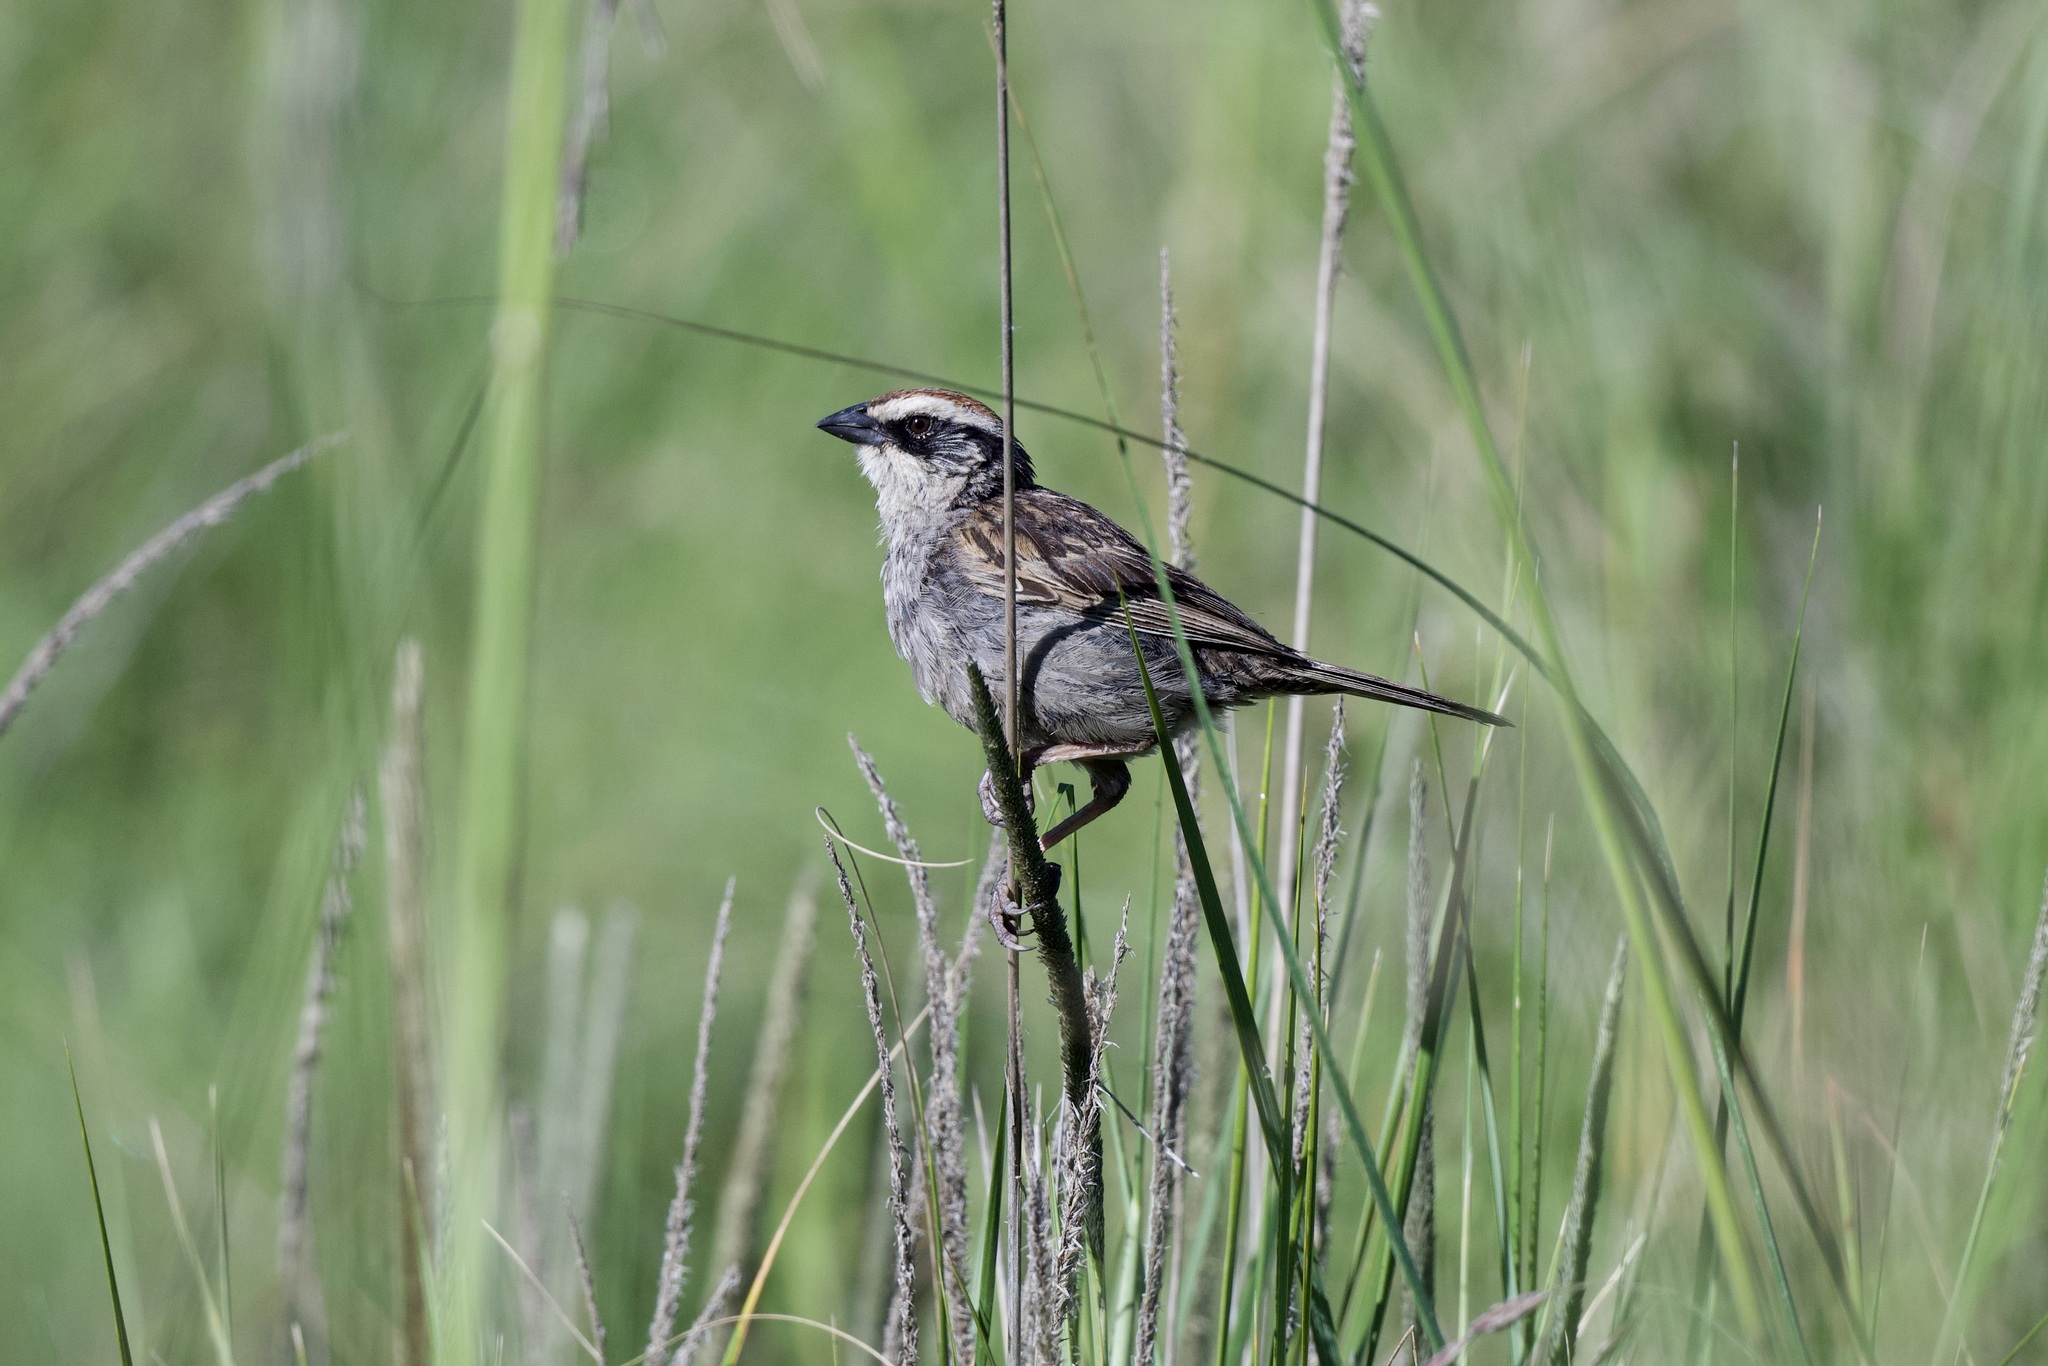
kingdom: Animalia
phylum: Chordata
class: Aves
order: Passeriformes
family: Passerellidae
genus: Oriturus
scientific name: Oriturus superciliosus
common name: Striped sparrow
